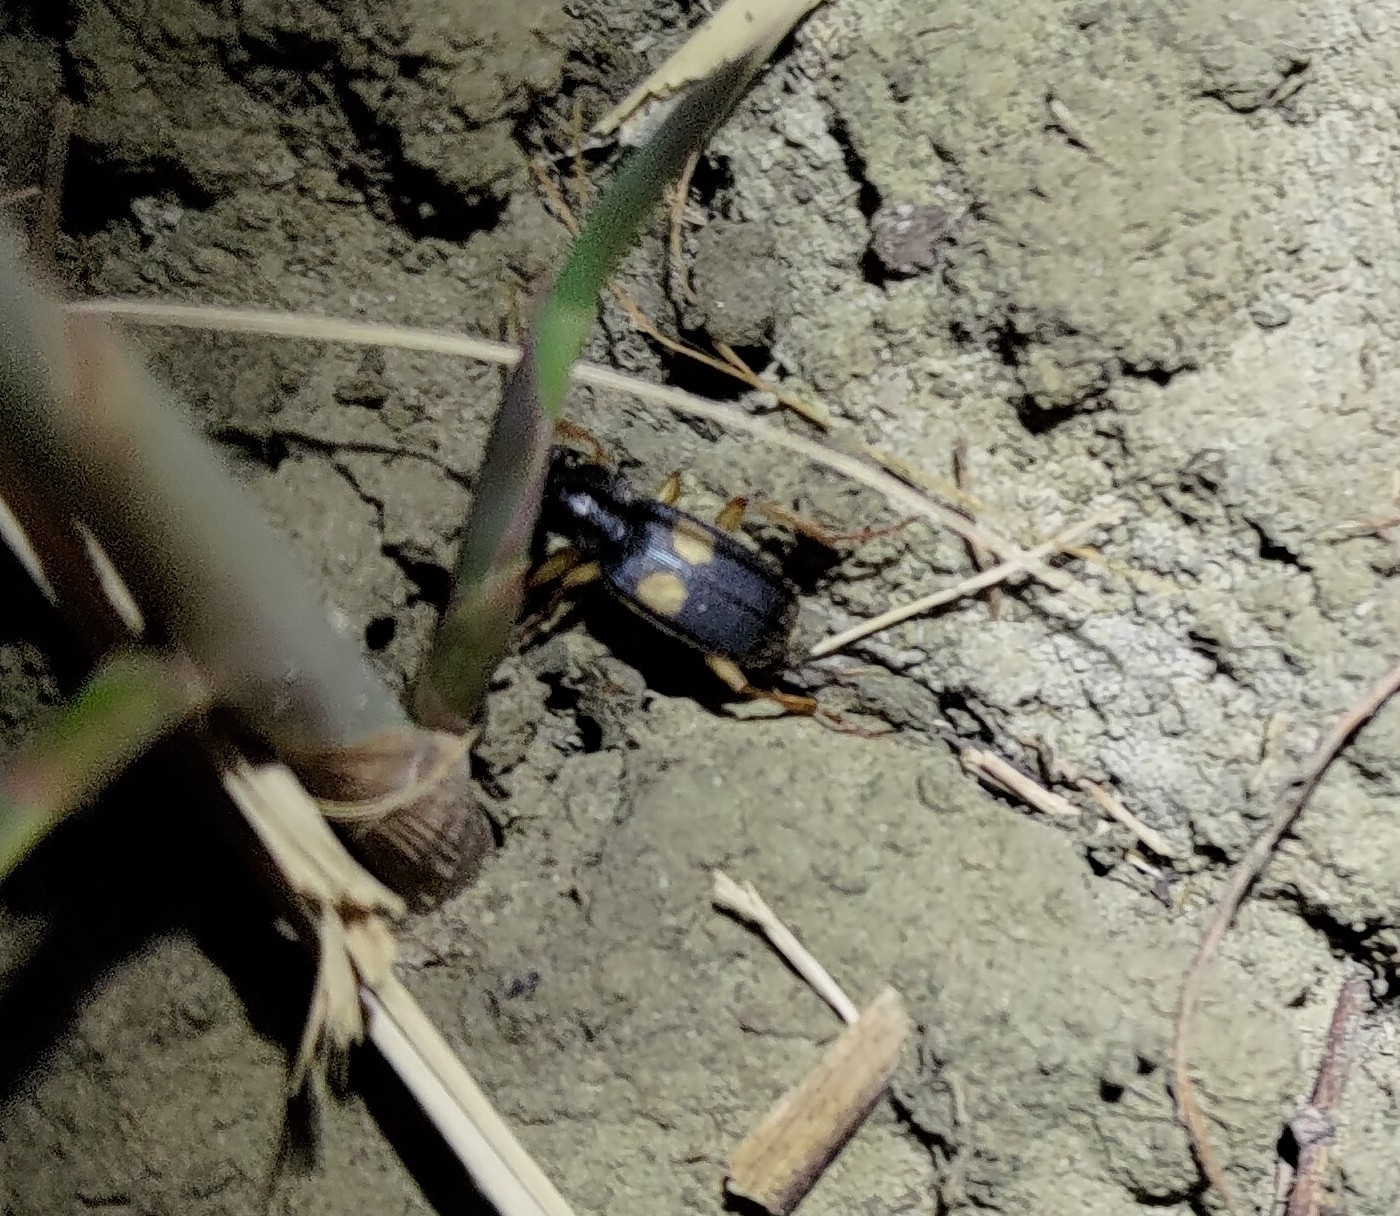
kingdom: Animalia
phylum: Arthropoda
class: Insecta
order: Coleoptera
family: Carabidae
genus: Planetes
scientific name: Planetes puncticeps
